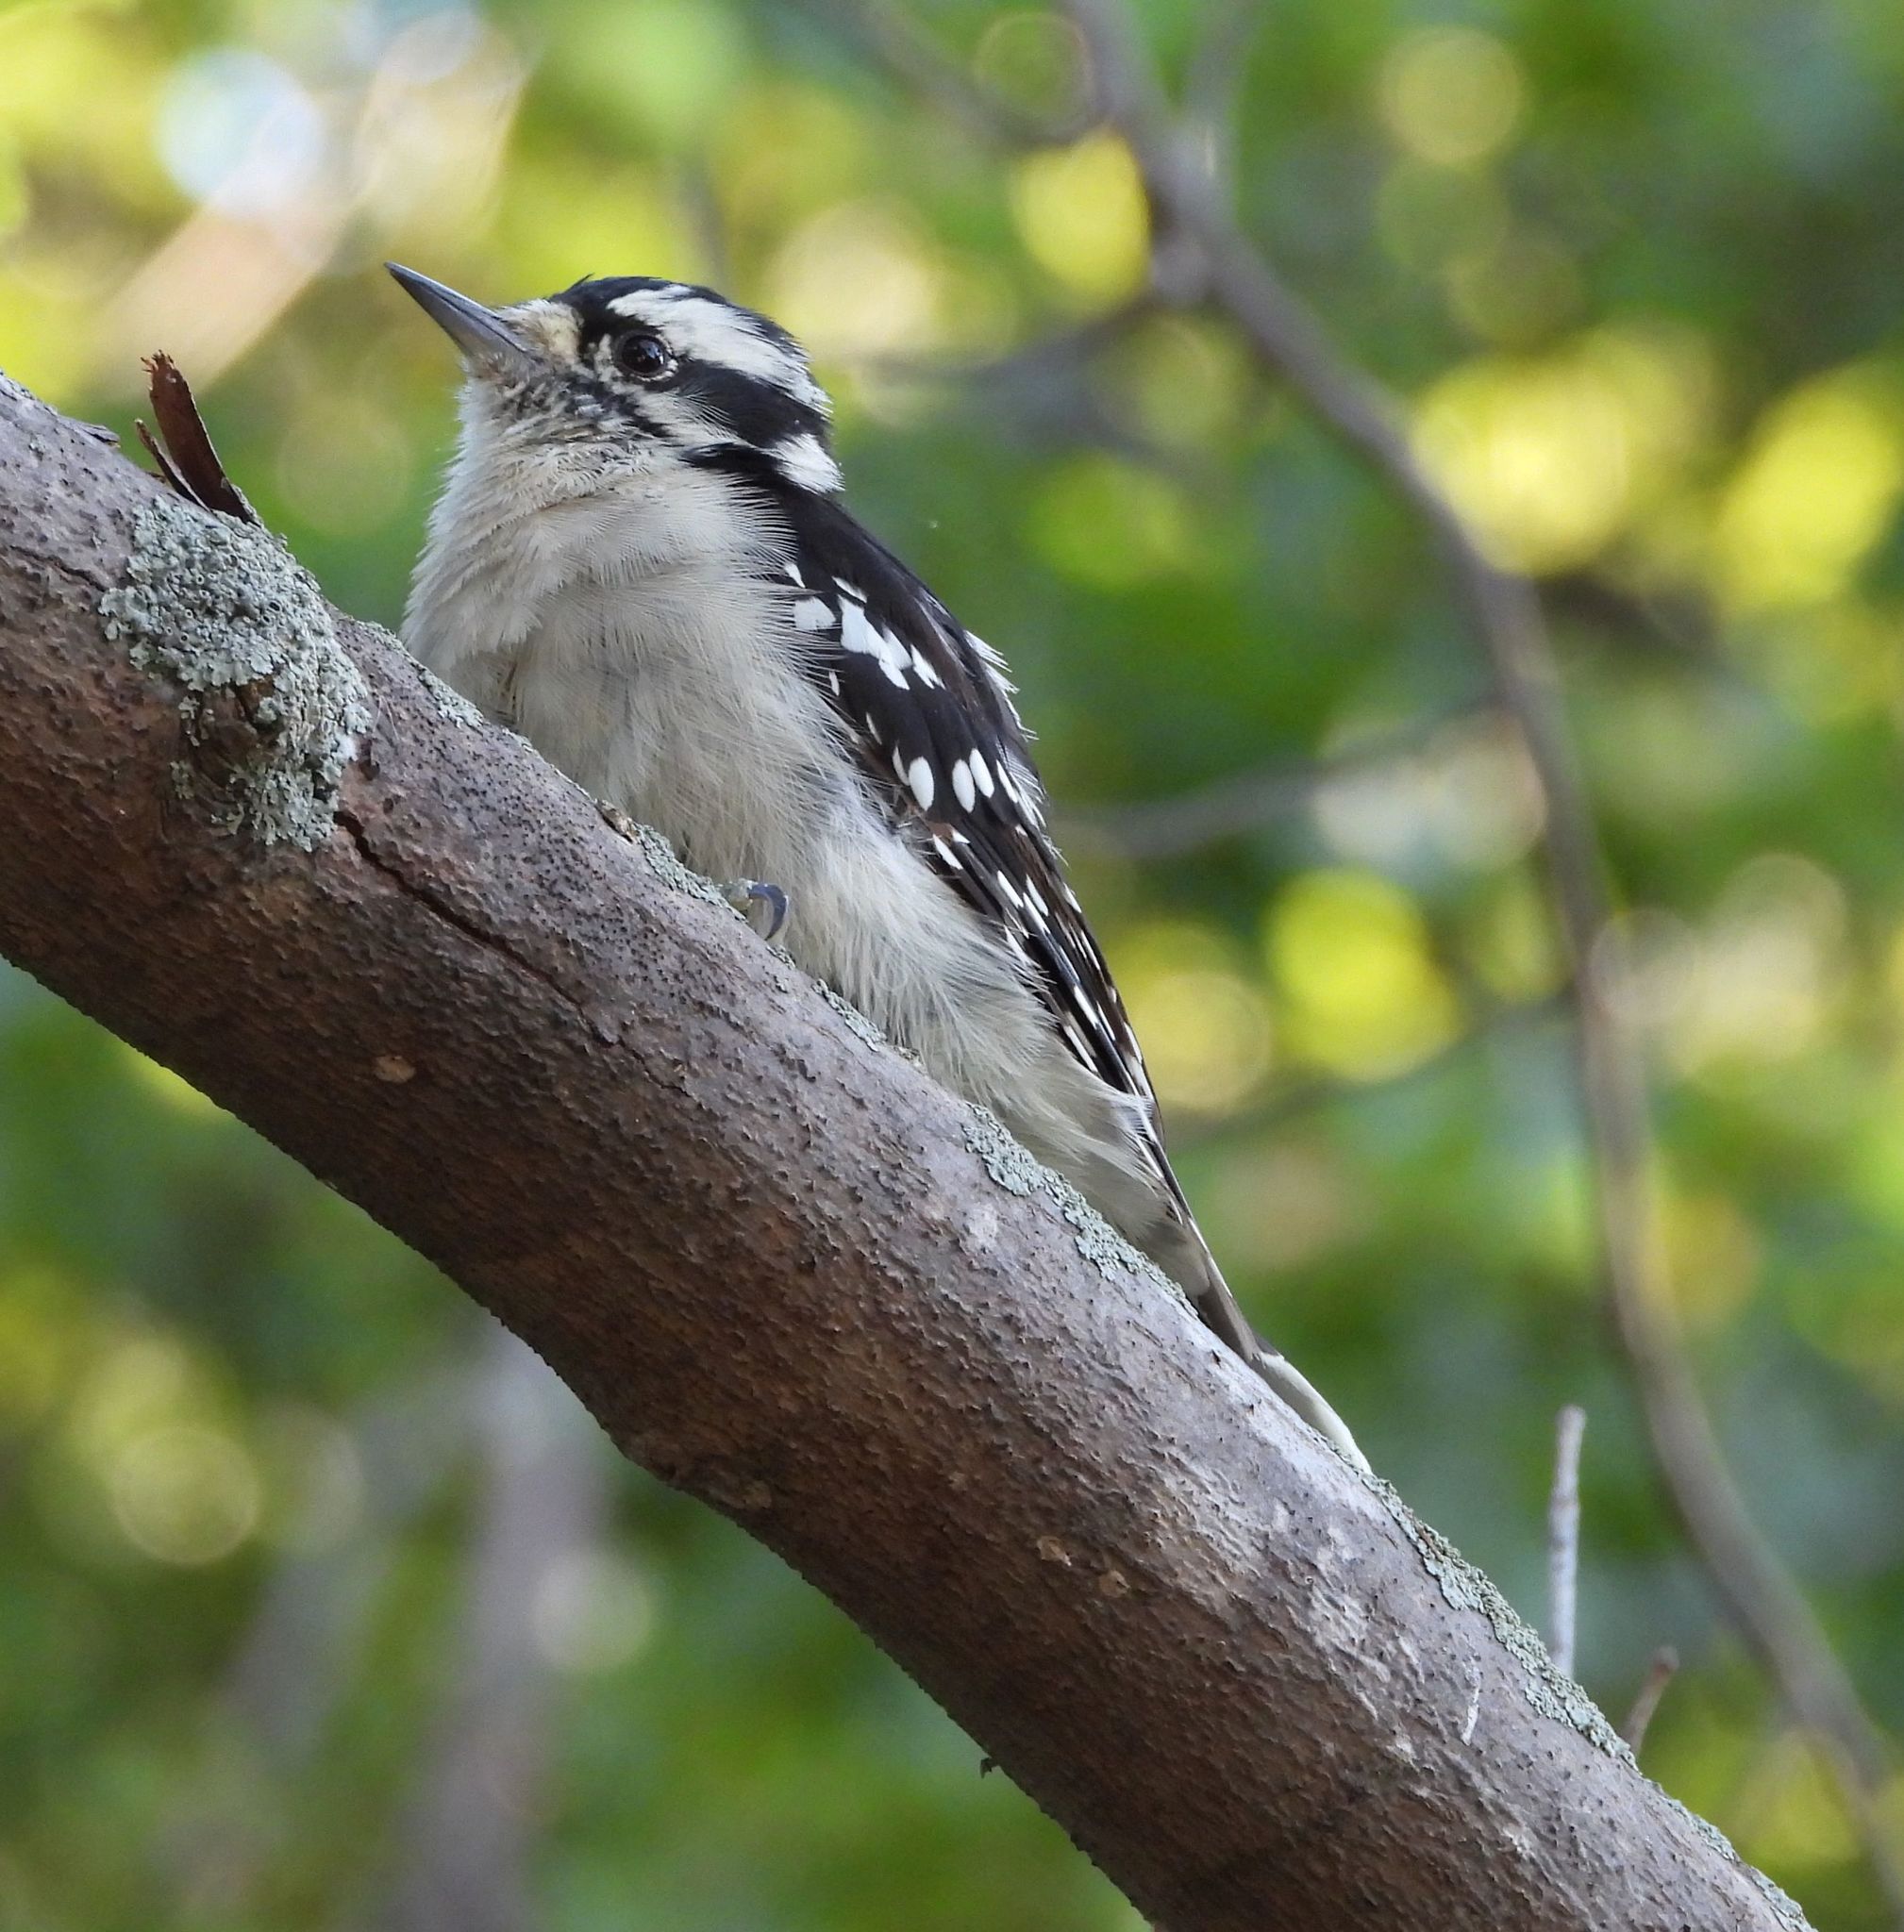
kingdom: Animalia
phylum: Chordata
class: Aves
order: Piciformes
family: Picidae
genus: Dryobates
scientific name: Dryobates pubescens
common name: Downy woodpecker
